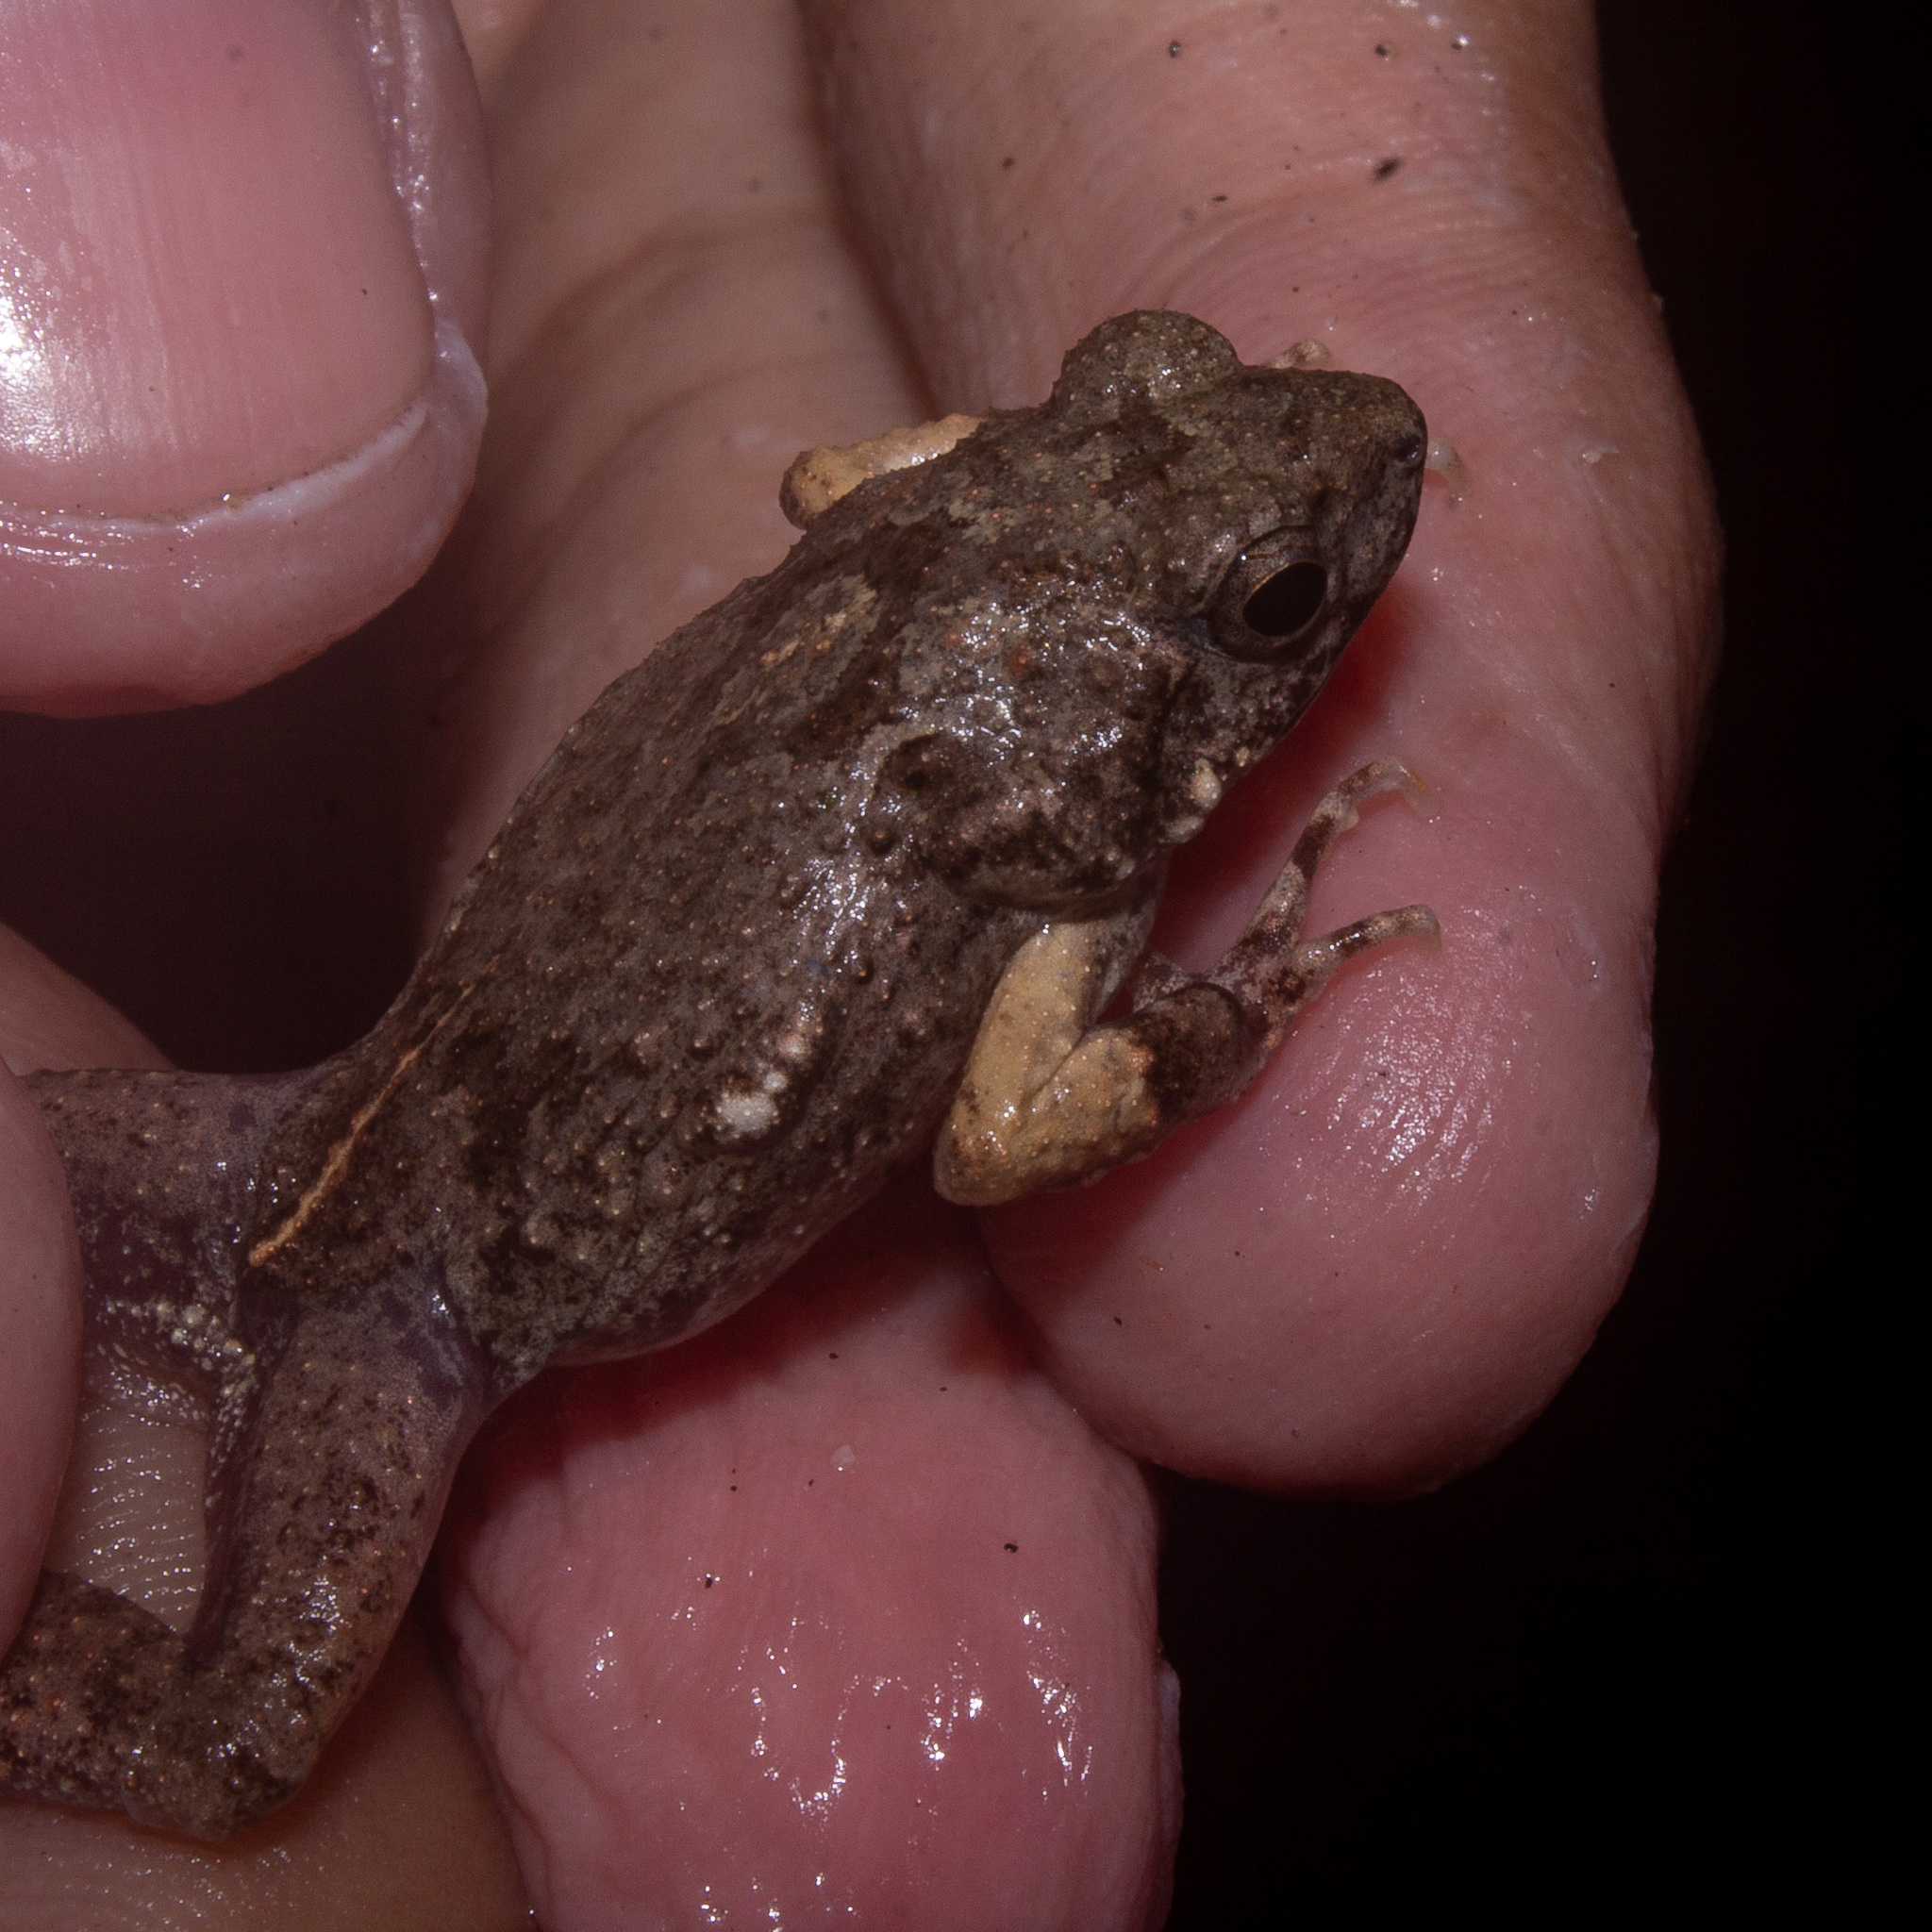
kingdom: Animalia
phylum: Chordata
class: Amphibia
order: Anura
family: Leptodactylidae
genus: Engystomops
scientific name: Engystomops pustulosus
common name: Tungara frog
